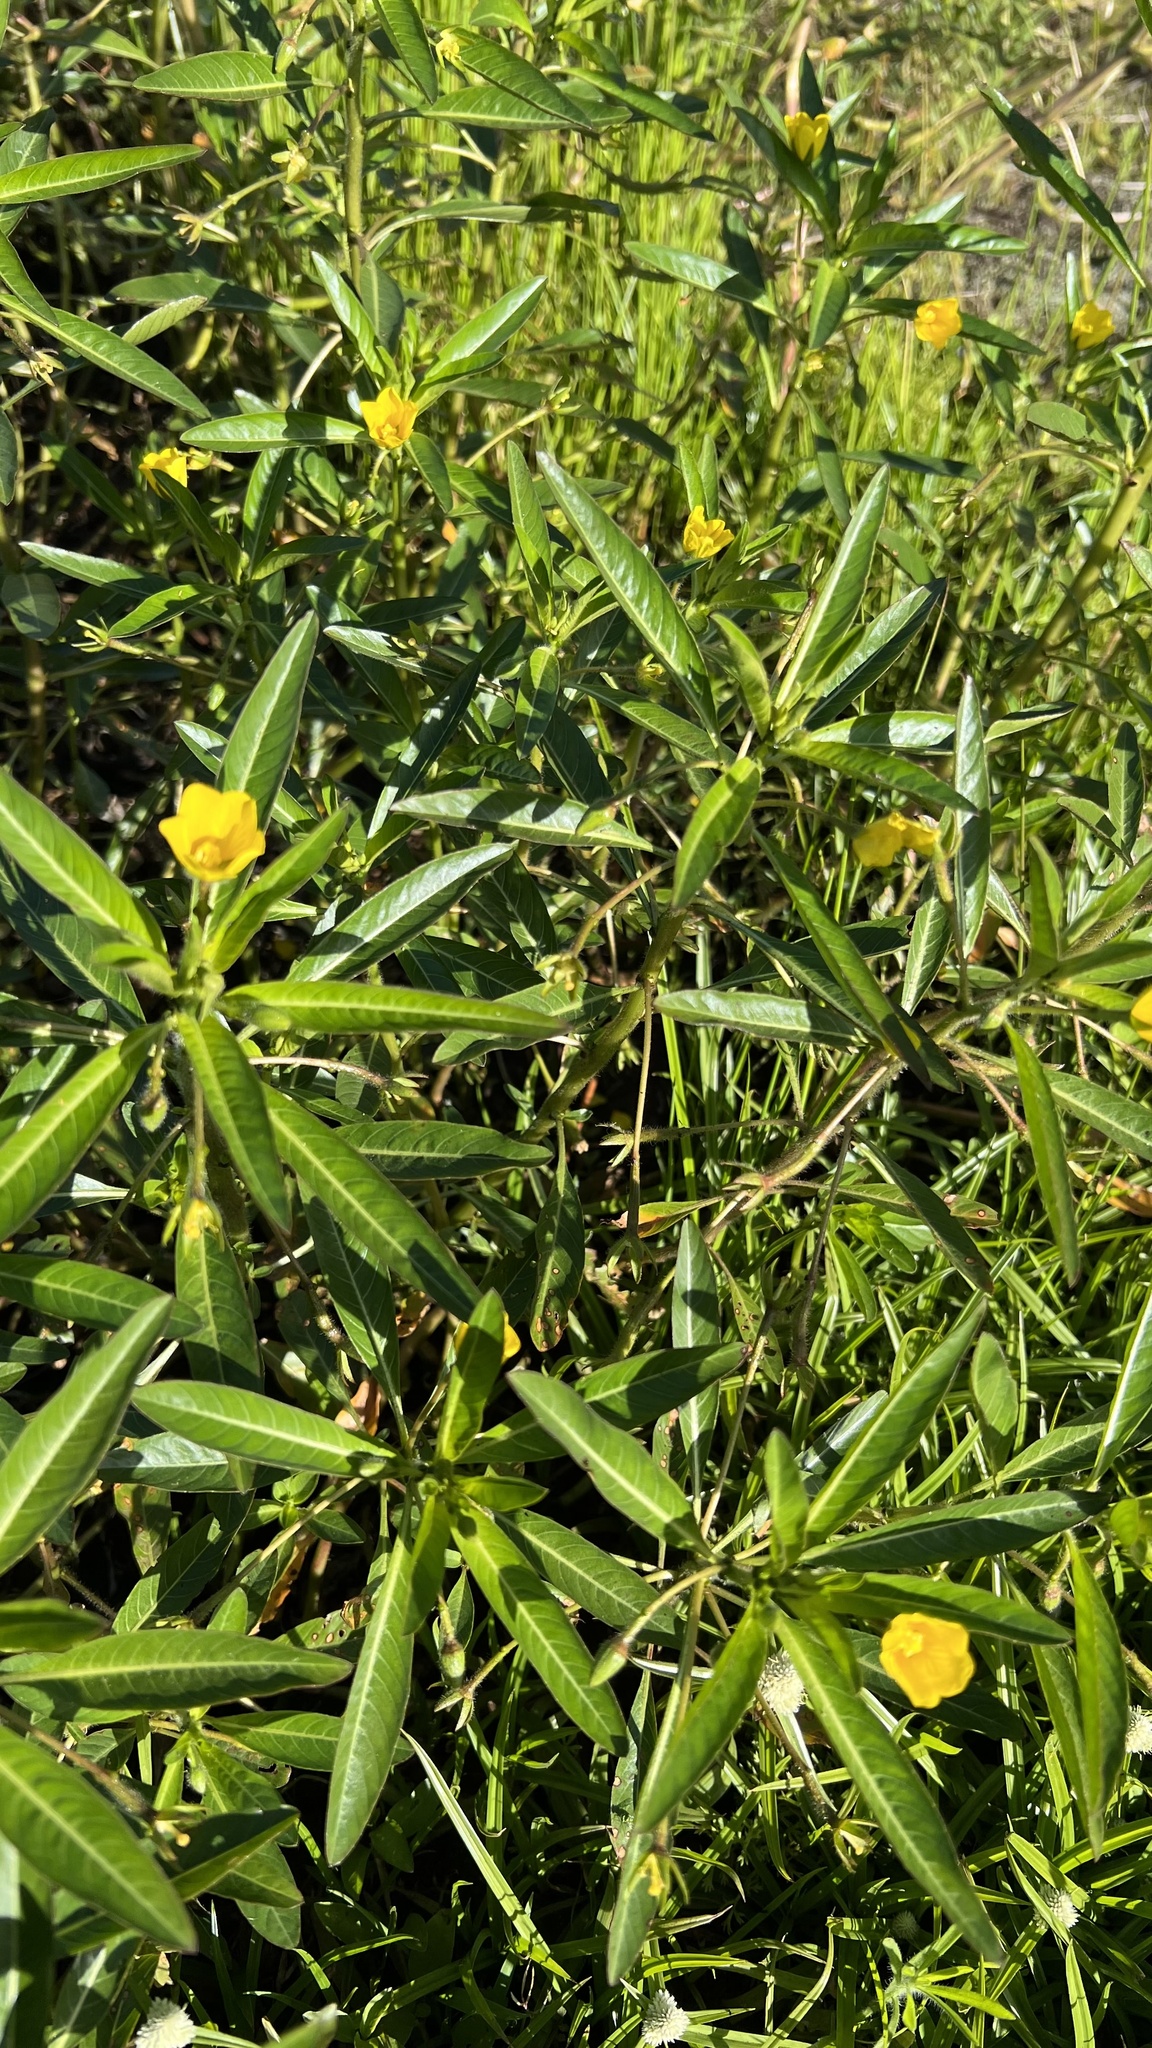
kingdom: Plantae
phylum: Tracheophyta
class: Magnoliopsida
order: Myrtales
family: Onagraceae
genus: Ludwigia
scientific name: Ludwigia peploides
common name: Floating primrose-willow
